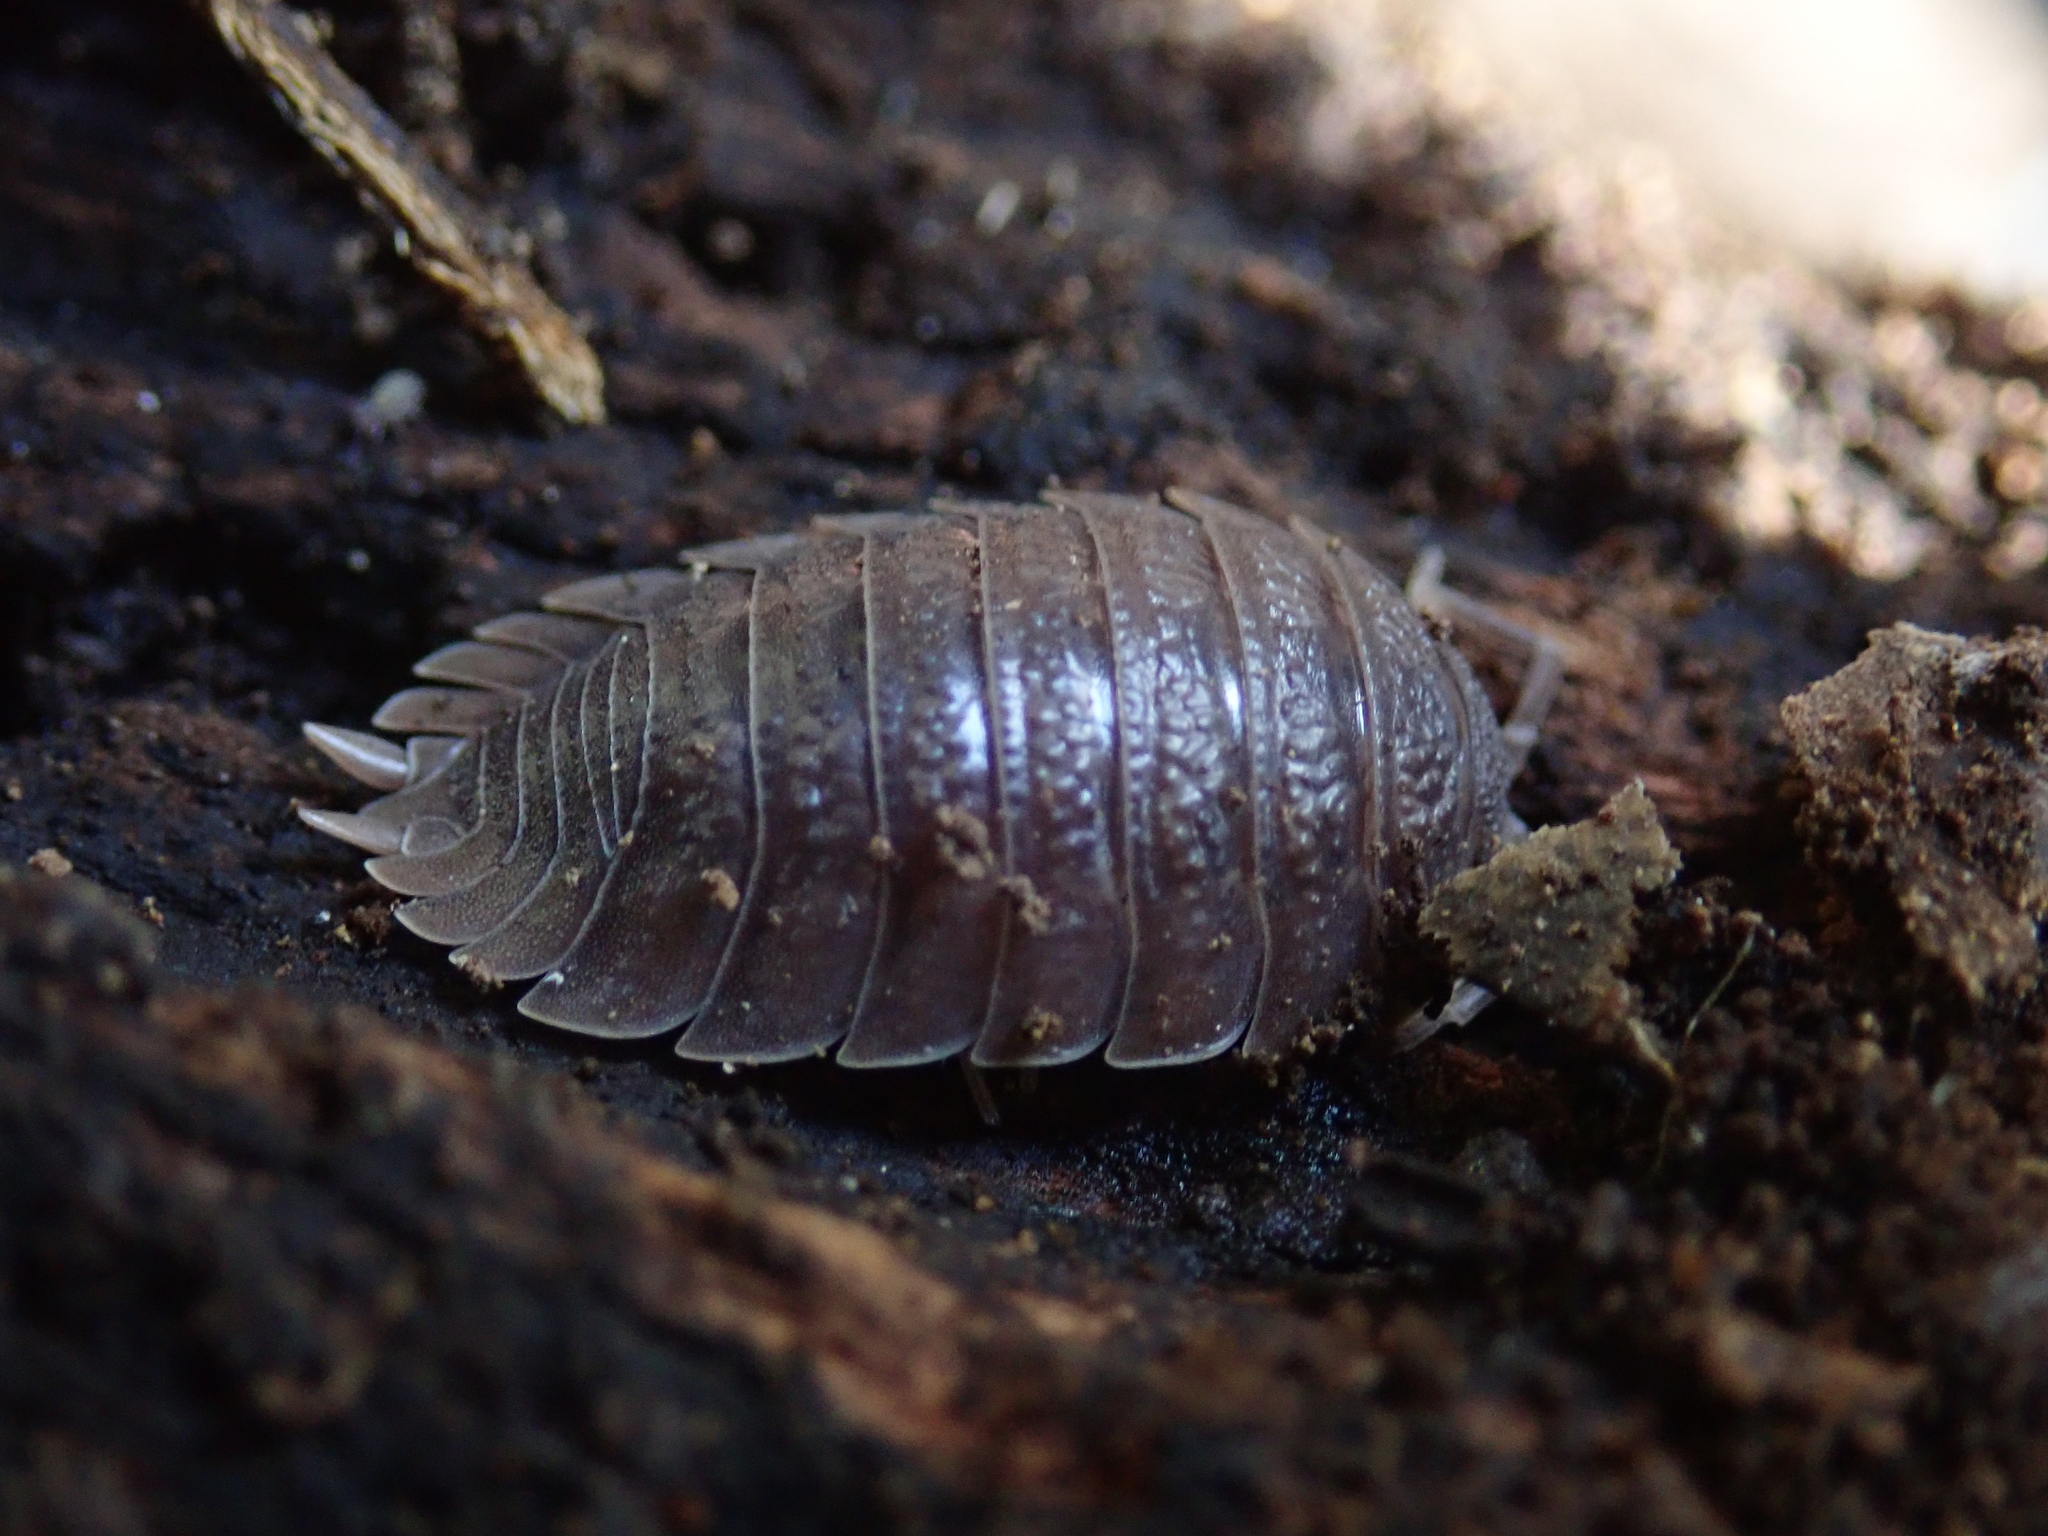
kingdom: Animalia
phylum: Arthropoda
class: Malacostraca
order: Isopoda
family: Porcellionidae
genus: Porcellio
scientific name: Porcellio dilatatus
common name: Isopod
